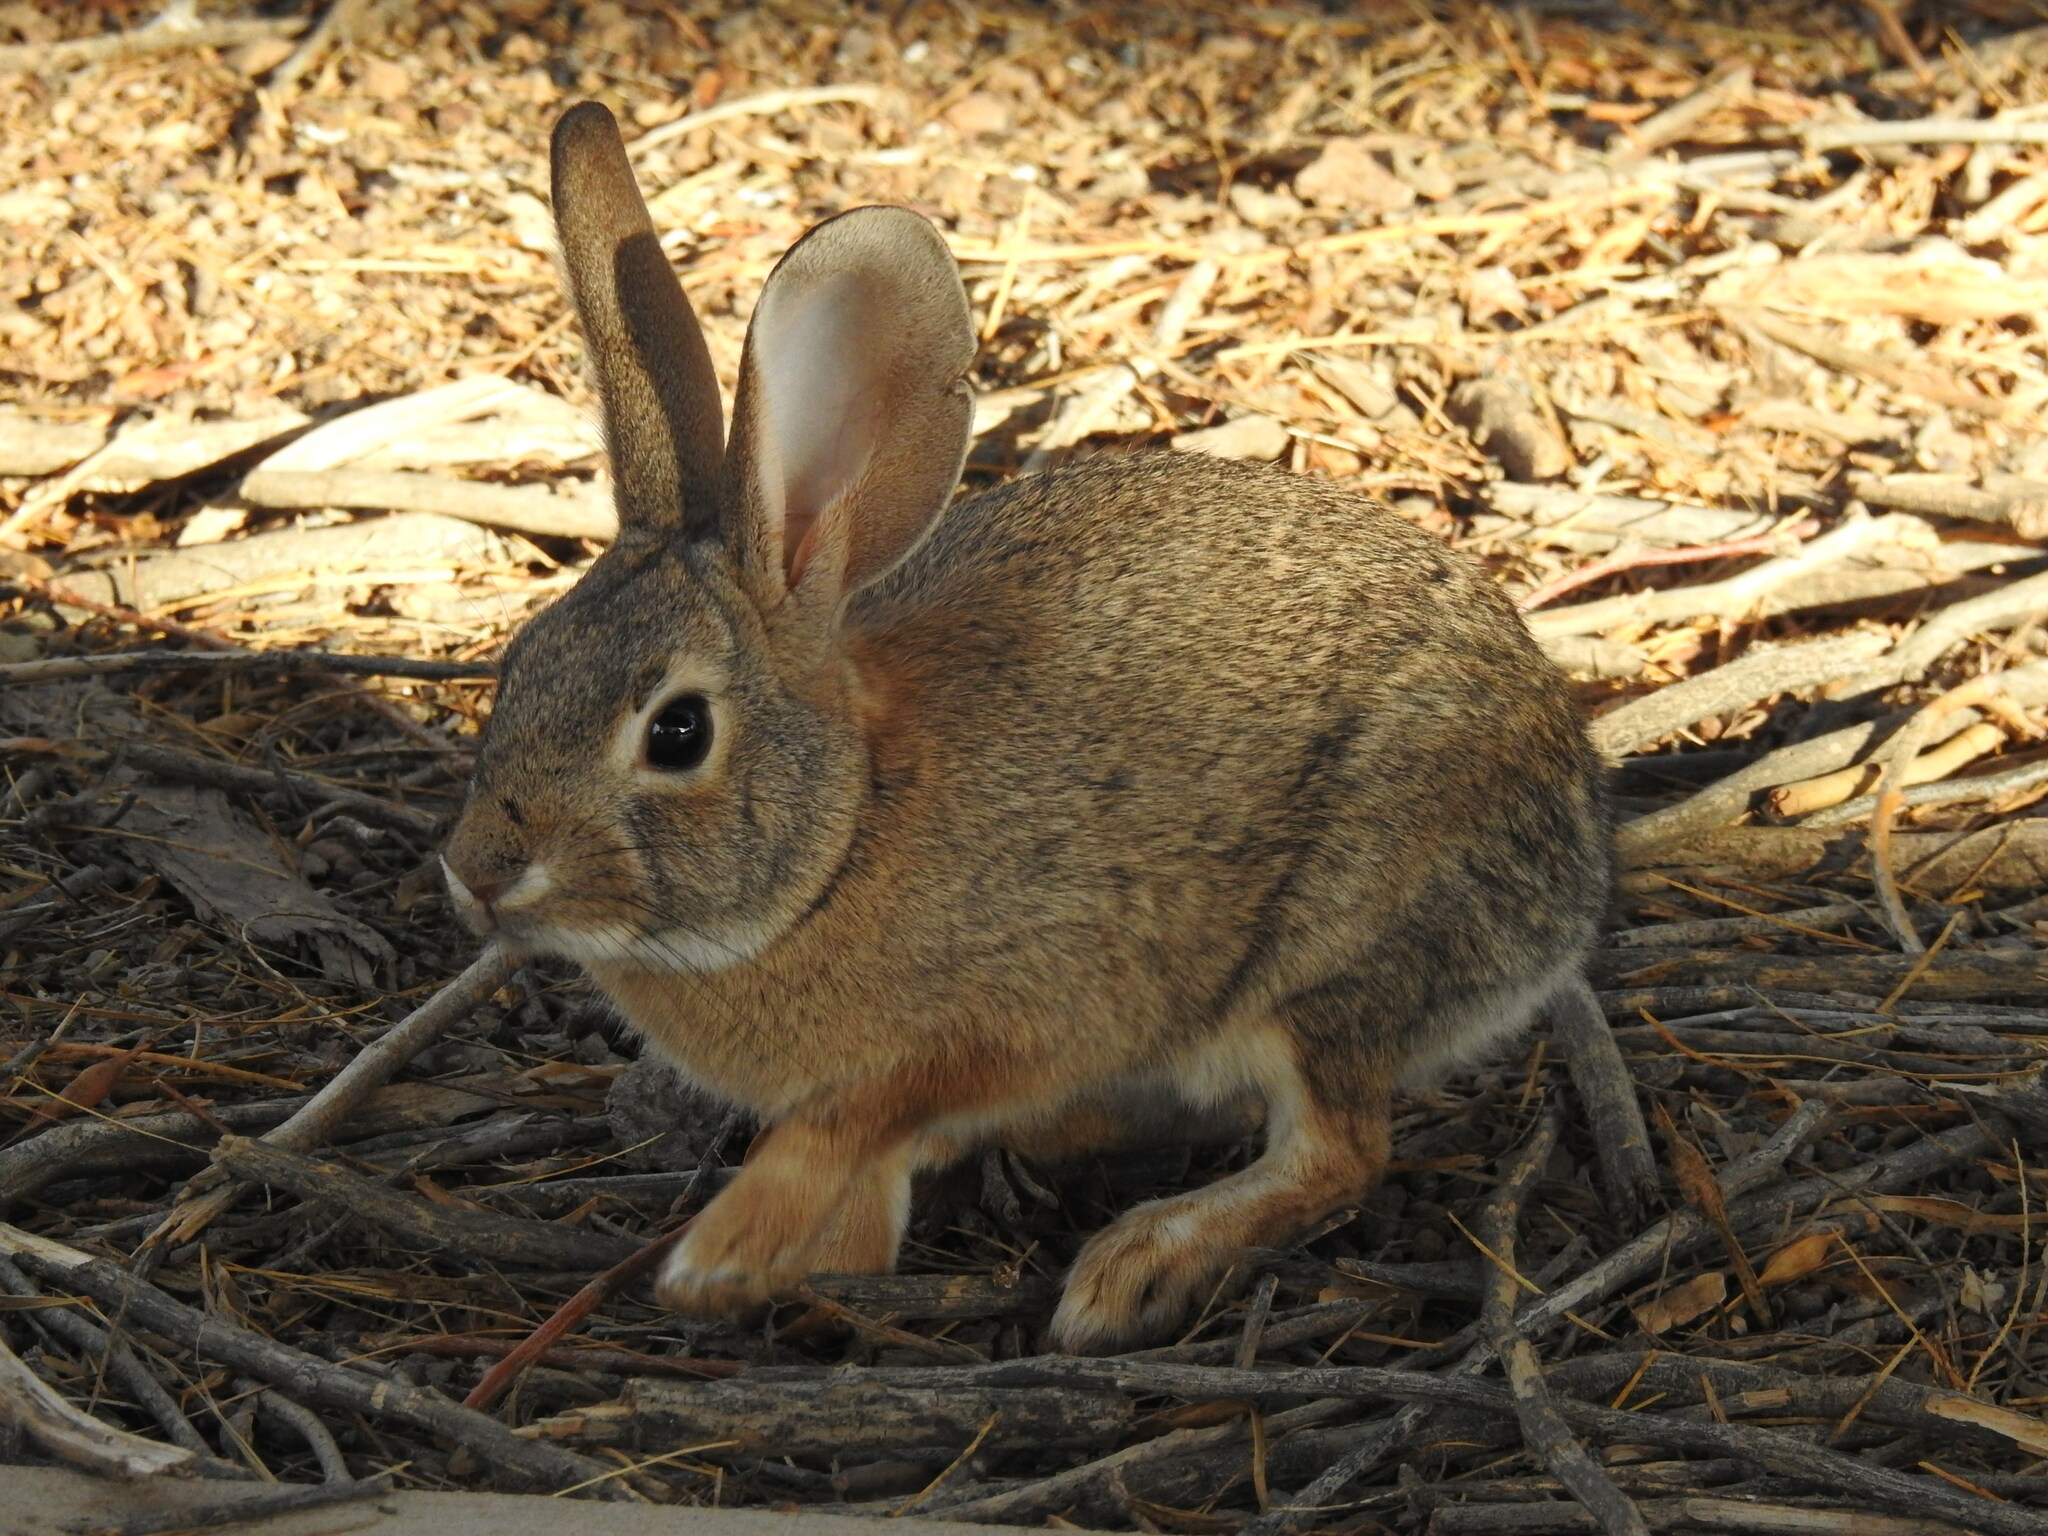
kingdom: Animalia
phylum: Chordata
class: Mammalia
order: Lagomorpha
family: Leporidae
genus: Sylvilagus
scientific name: Sylvilagus audubonii
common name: Desert cottontail
